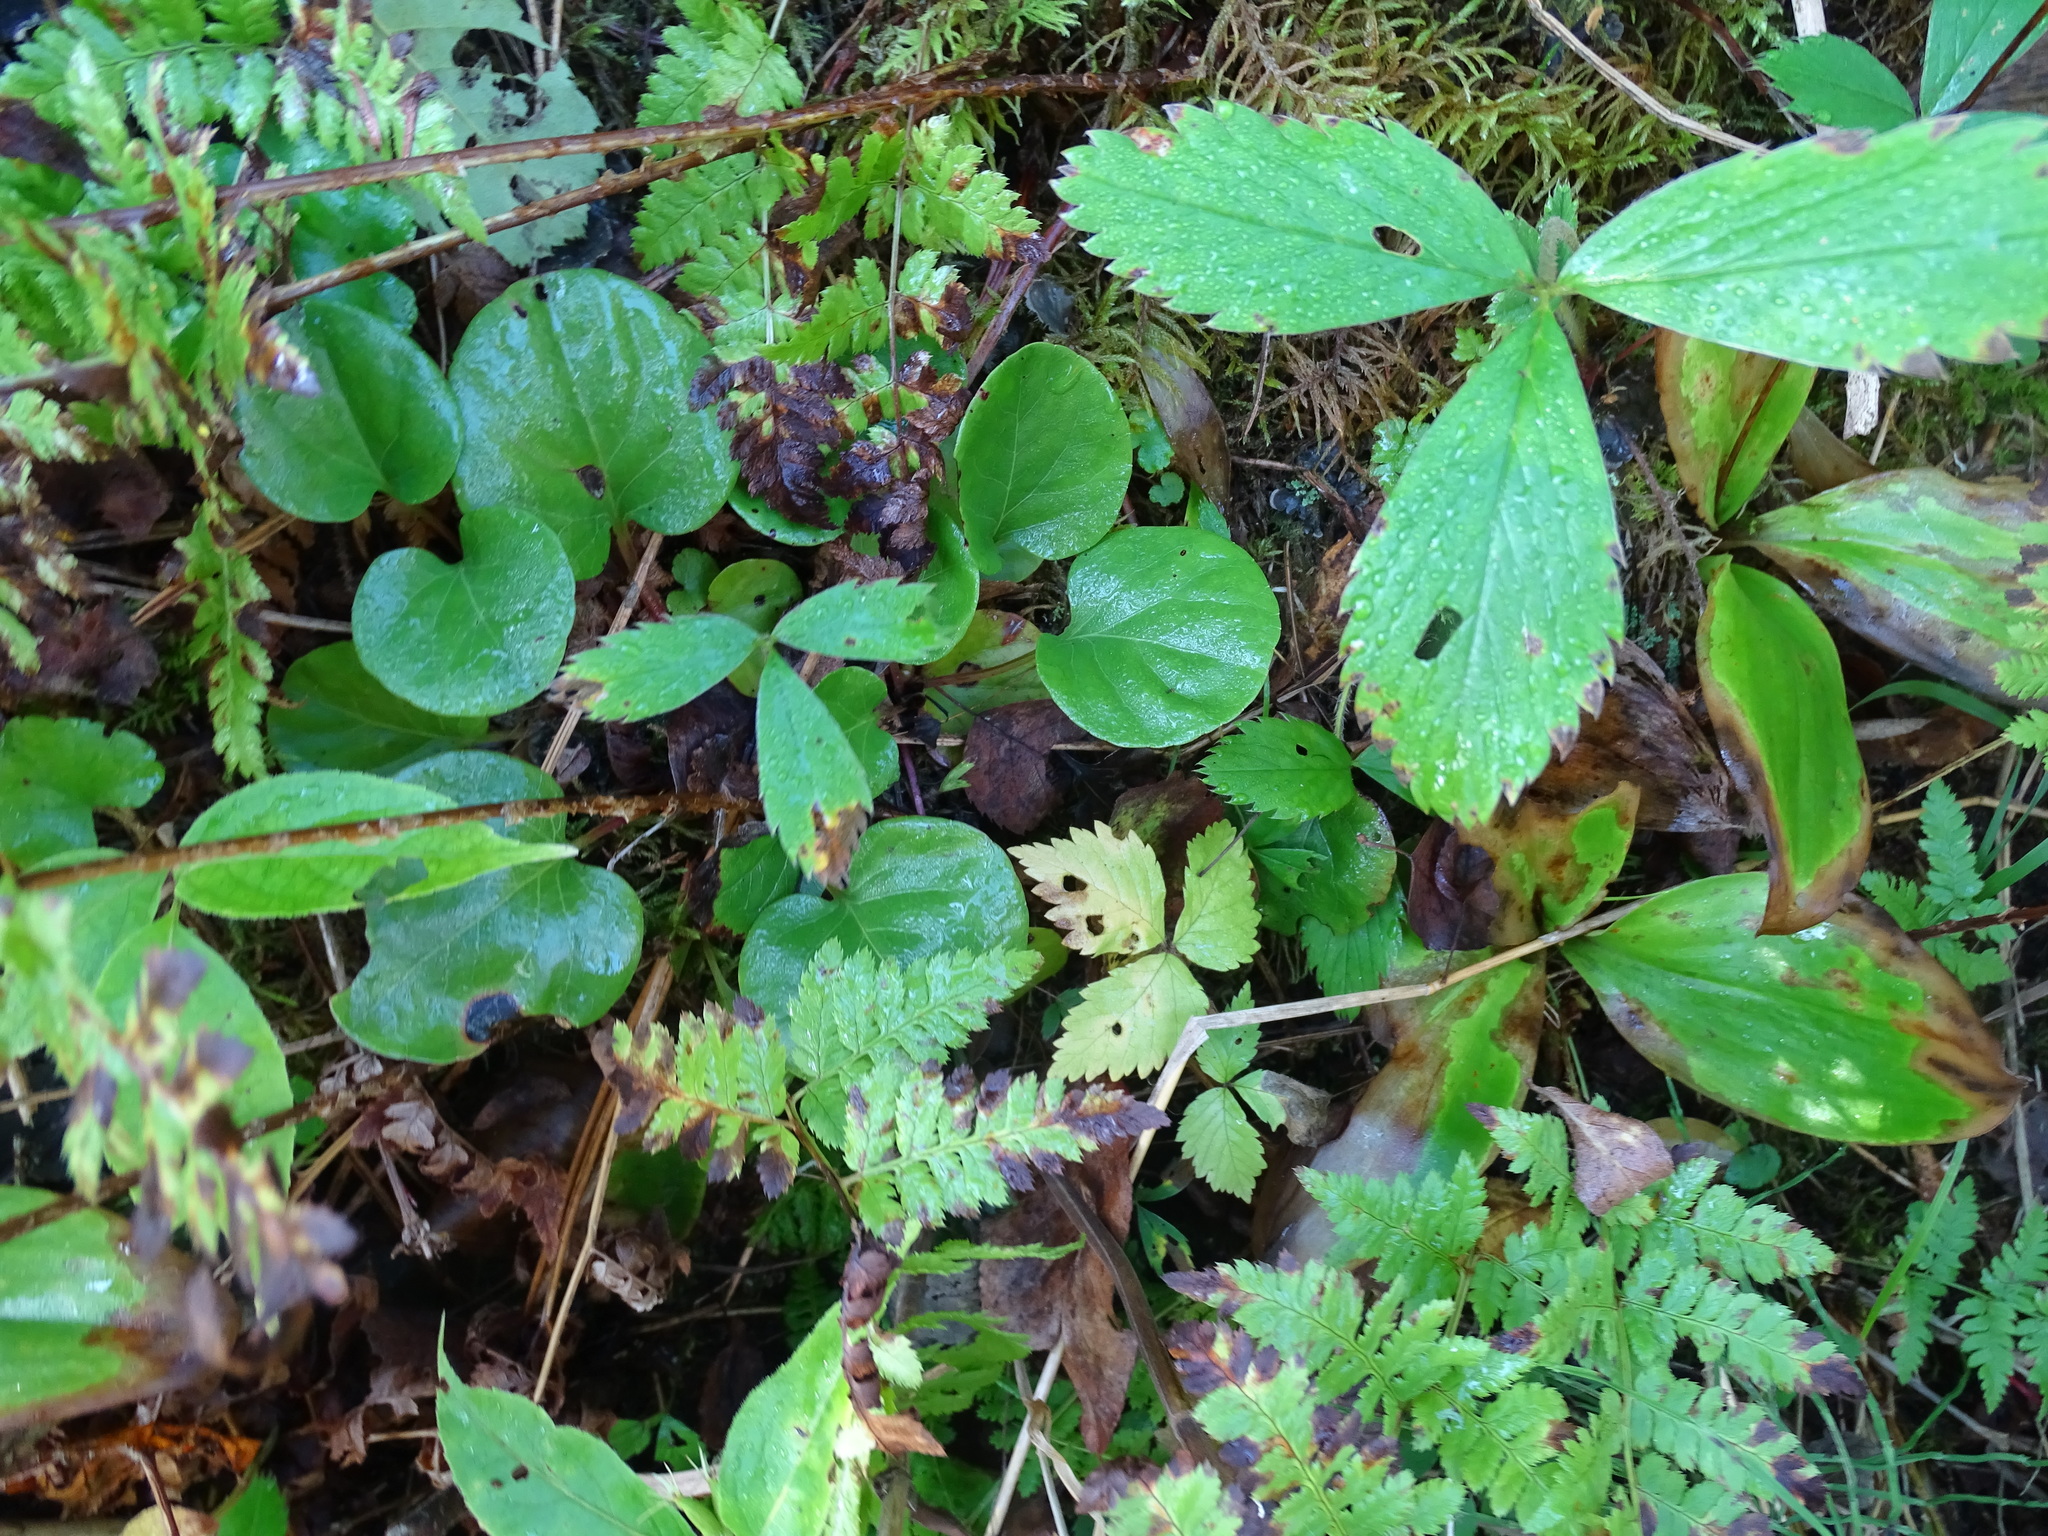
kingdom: Plantae
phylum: Tracheophyta
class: Magnoliopsida
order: Ericales
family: Ericaceae
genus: Pyrola
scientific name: Pyrola asarifolia
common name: Bog wintergreen
